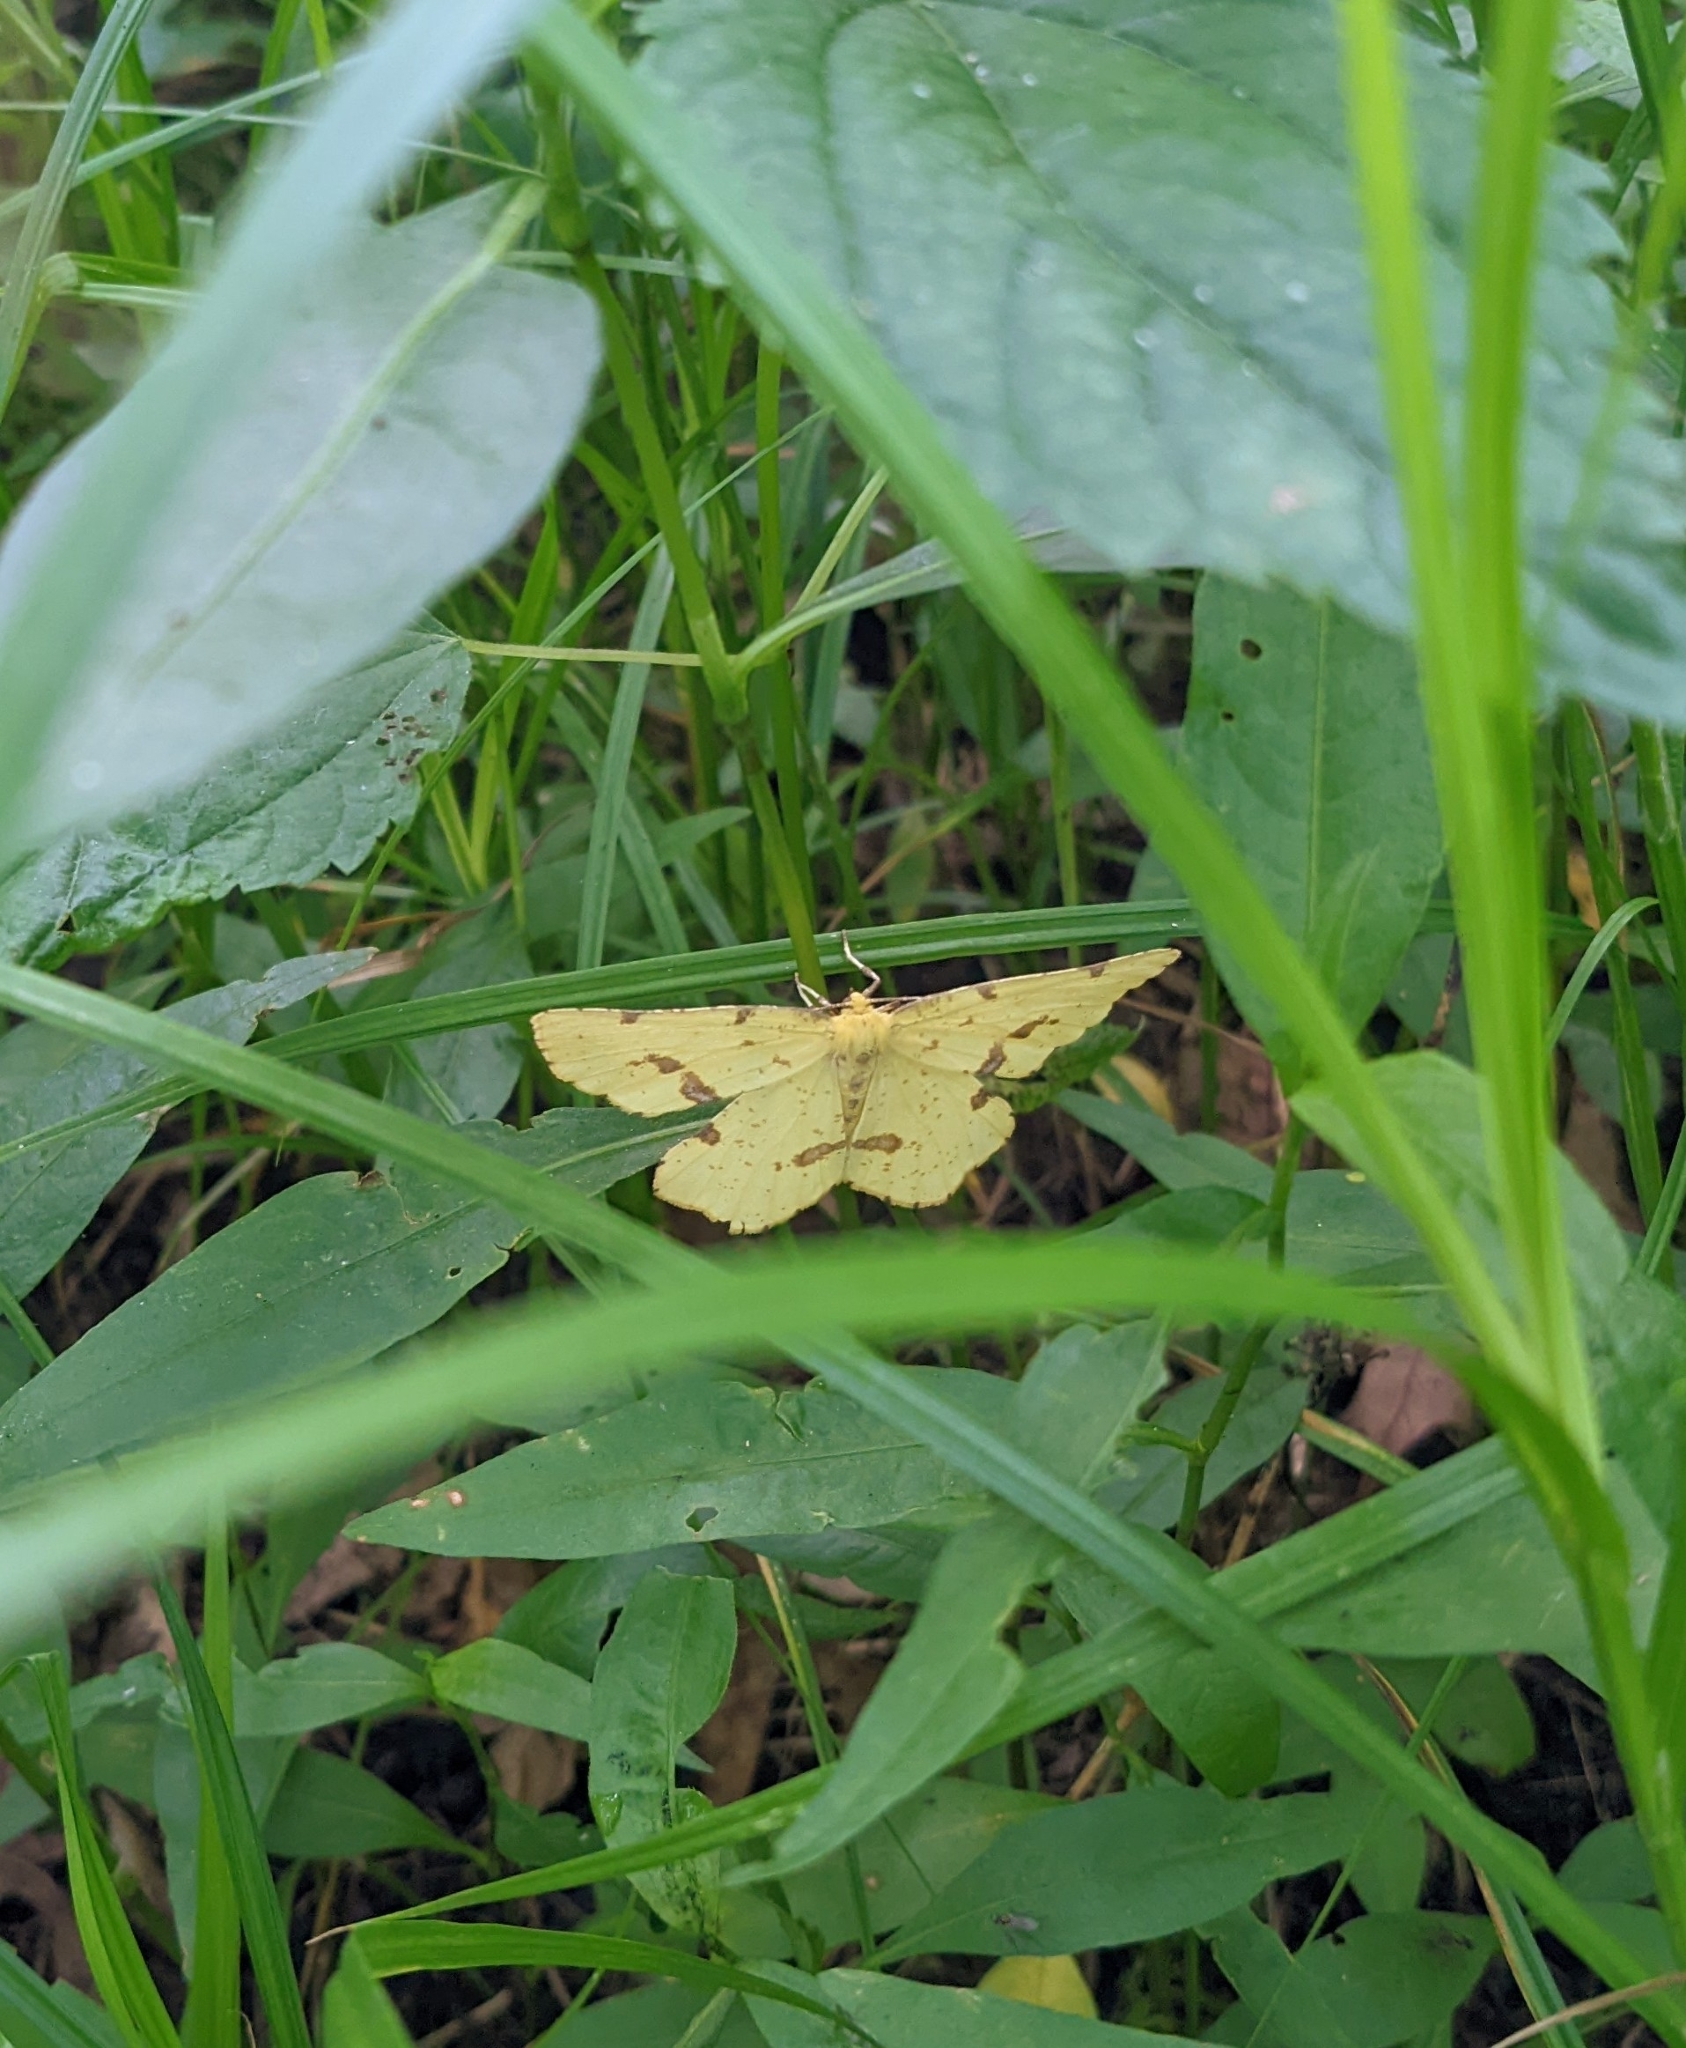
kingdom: Animalia
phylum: Arthropoda
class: Insecta
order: Lepidoptera
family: Geometridae
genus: Xanthotype
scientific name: Xanthotype
